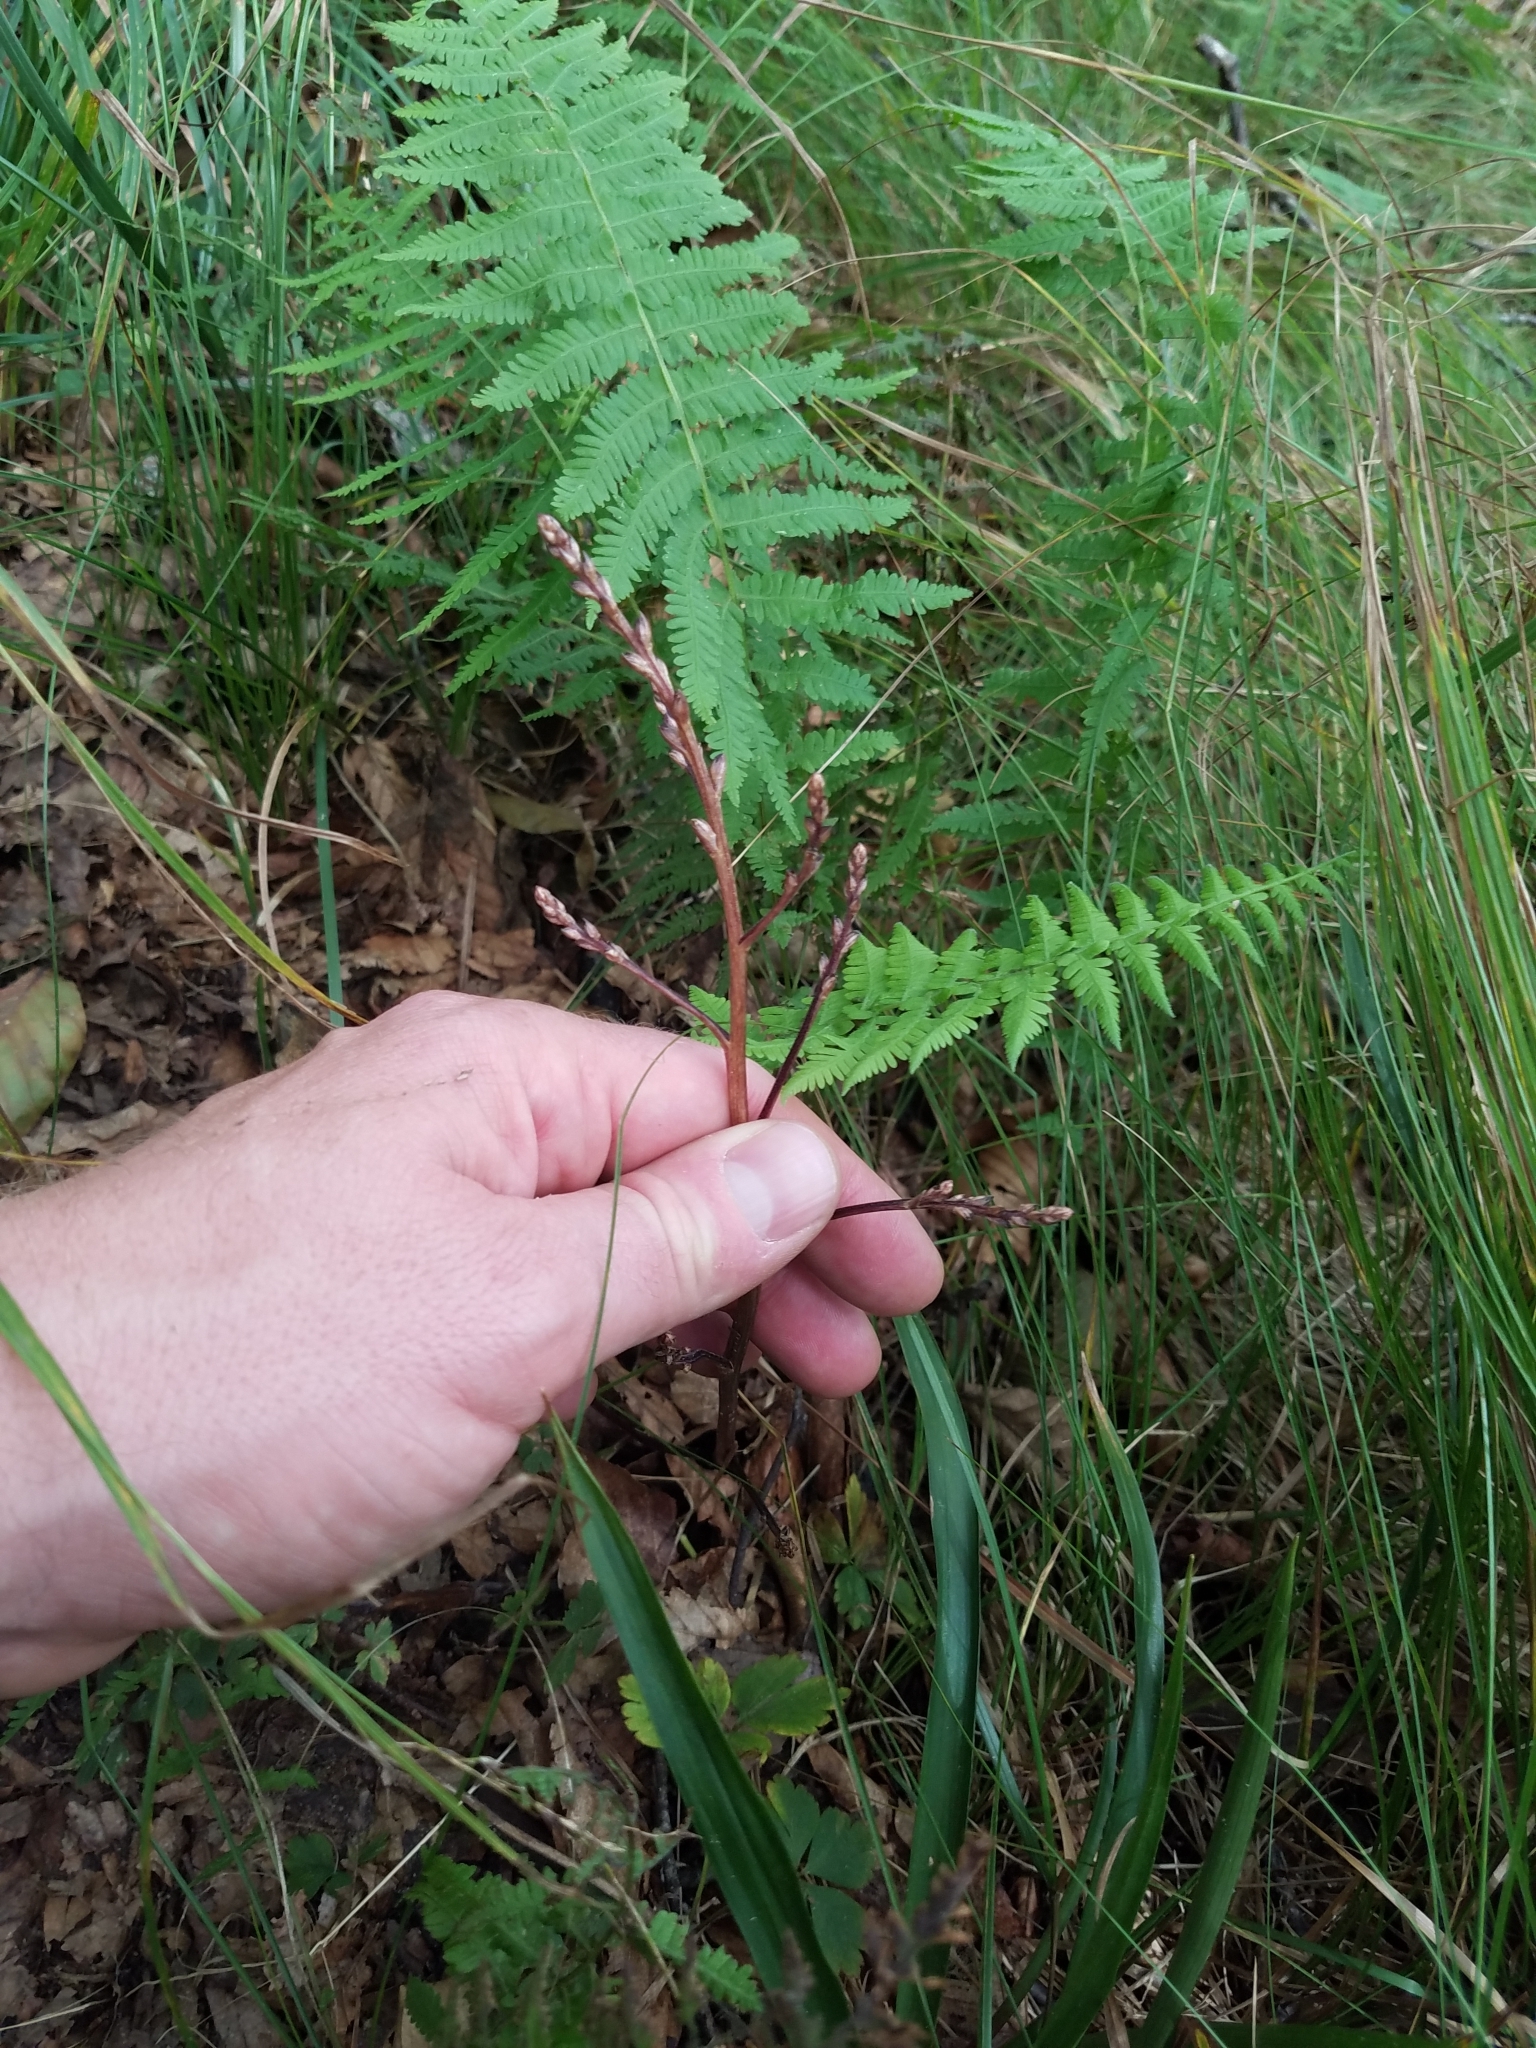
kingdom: Plantae
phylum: Tracheophyta
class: Magnoliopsida
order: Lamiales
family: Orobanchaceae
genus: Epifagus
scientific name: Epifagus virginiana
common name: Beechdrops
